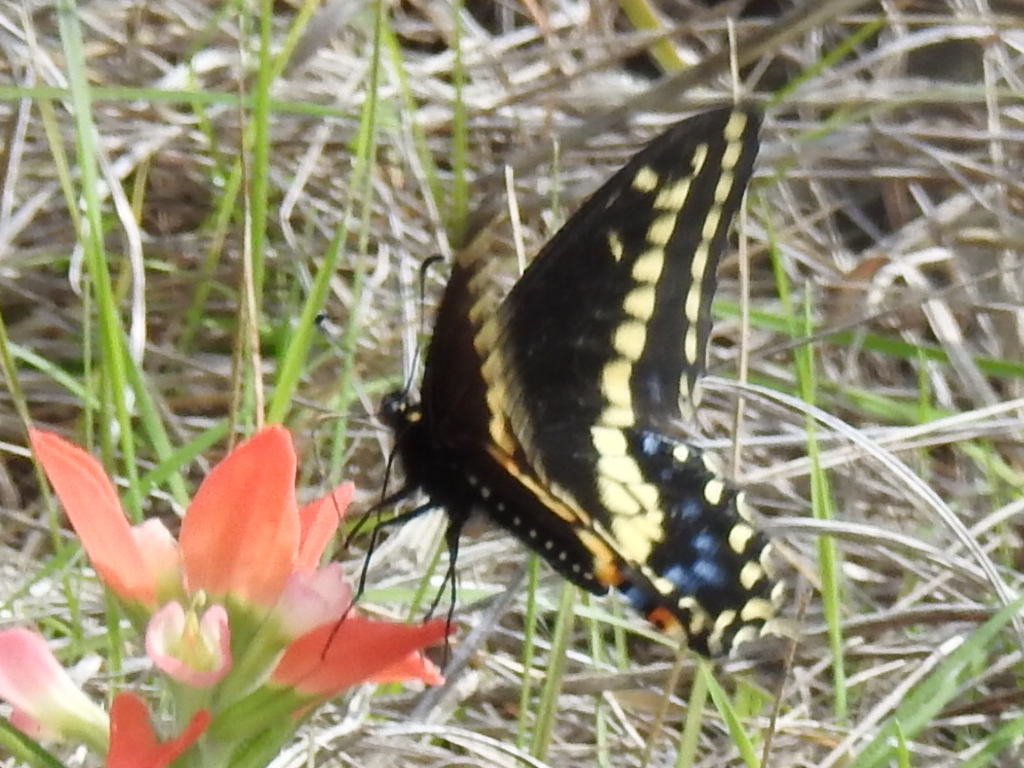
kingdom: Animalia
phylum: Arthropoda
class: Insecta
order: Lepidoptera
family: Papilionidae
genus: Papilio
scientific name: Papilio polyxenes
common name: Black swallowtail
